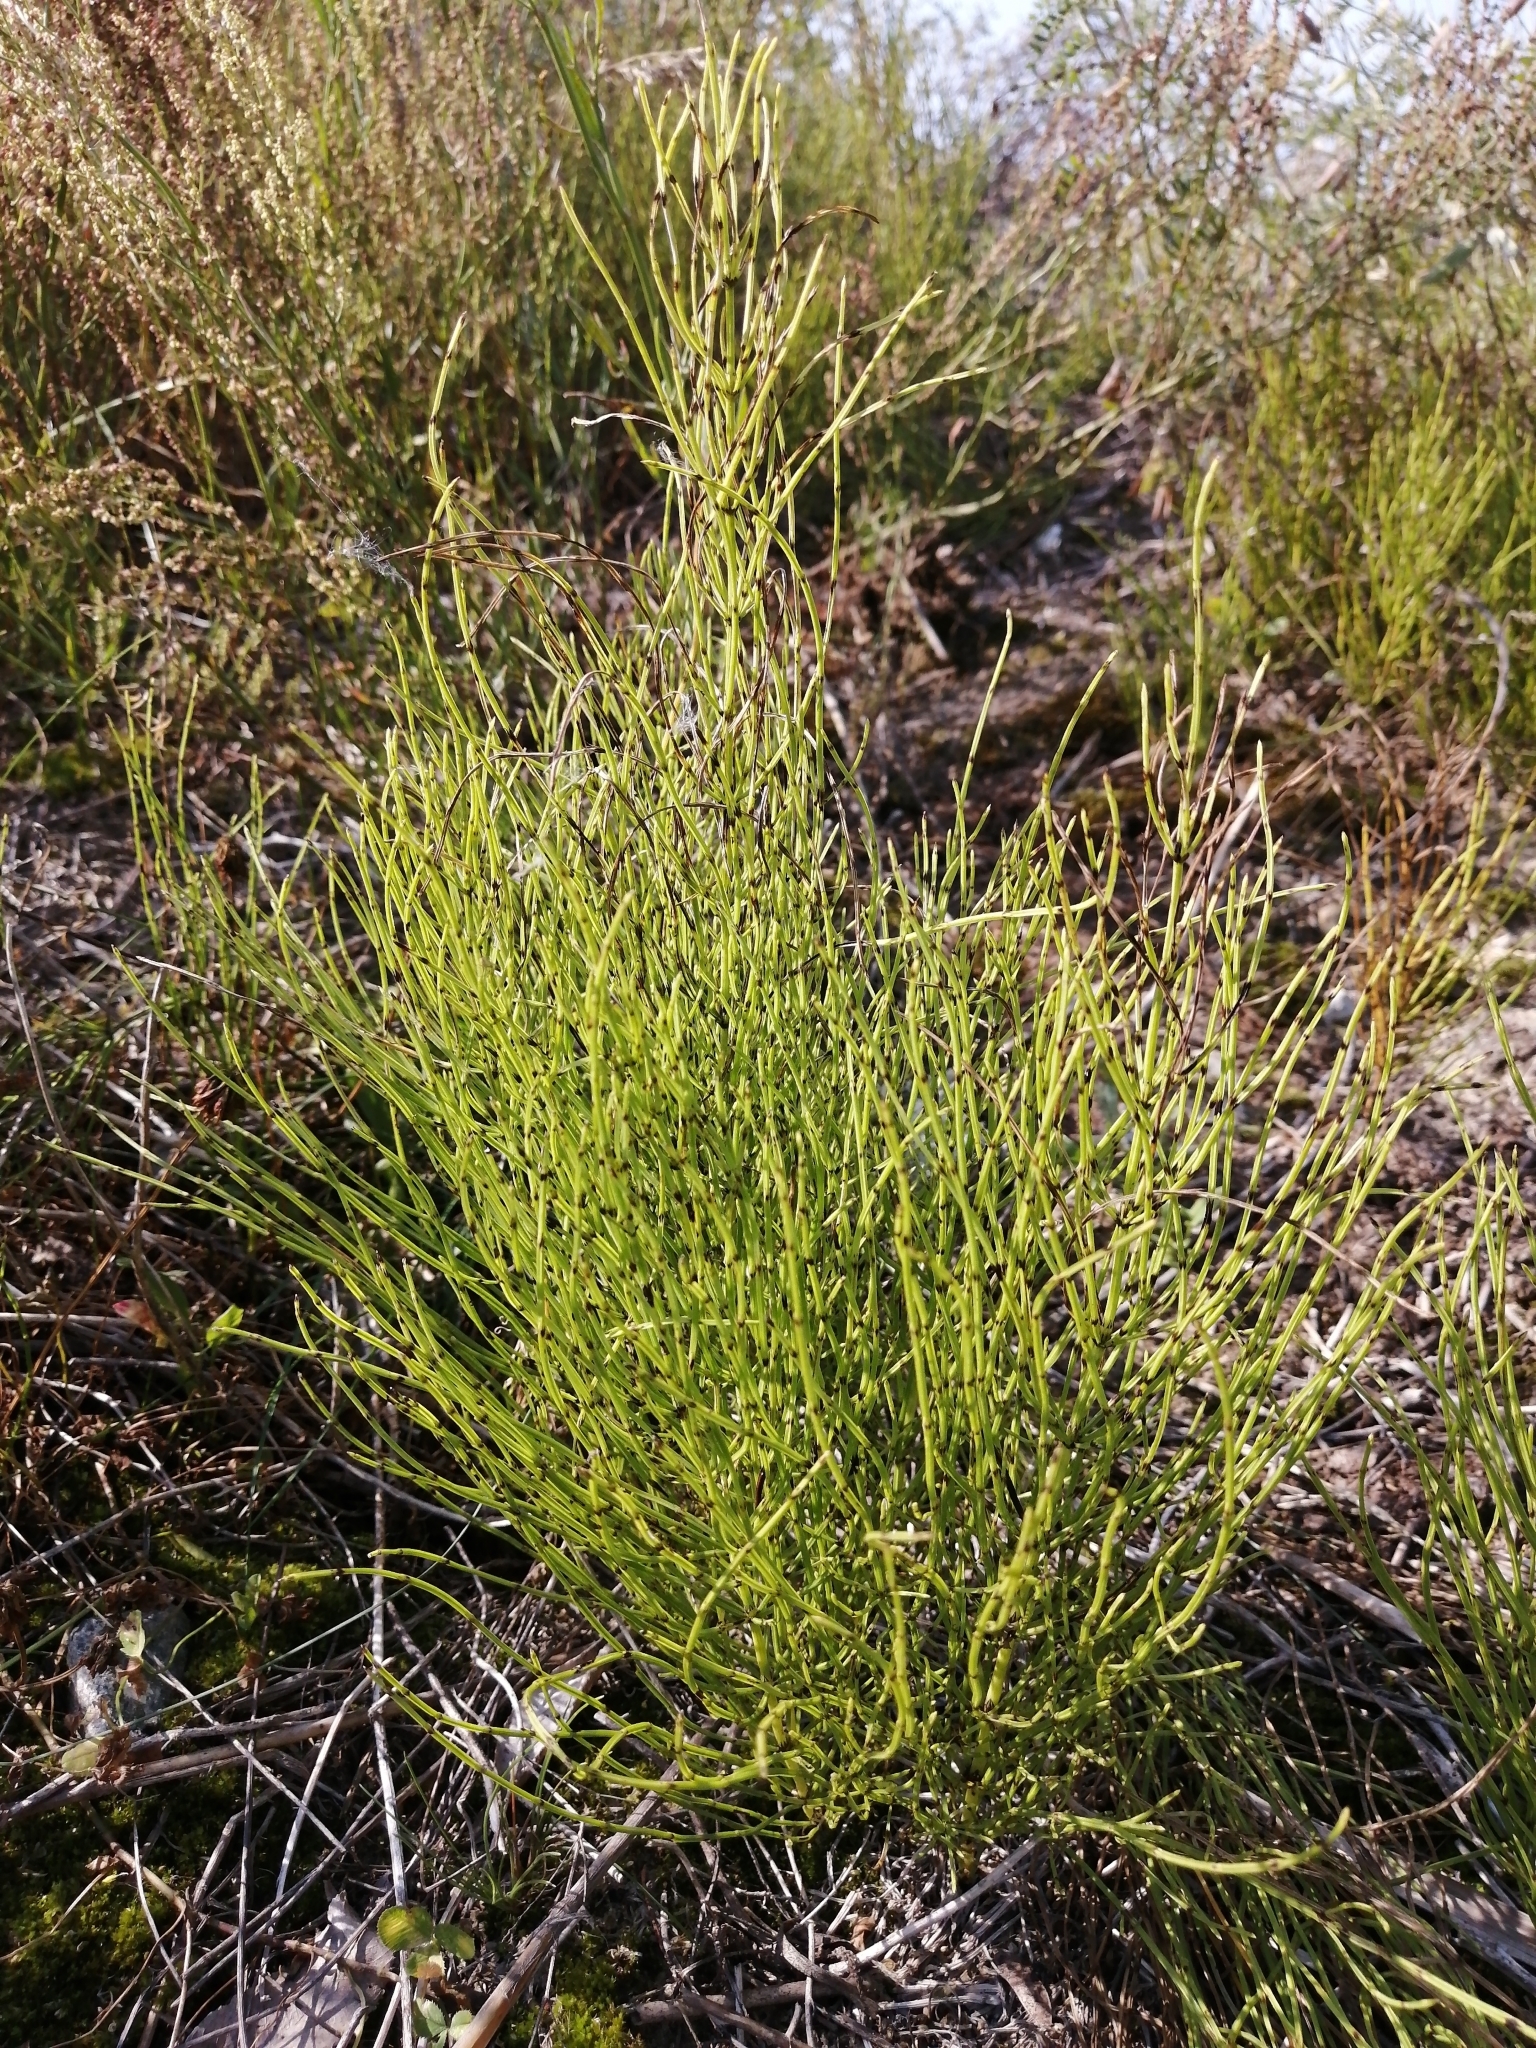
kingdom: Plantae
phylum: Tracheophyta
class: Polypodiopsida
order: Equisetales
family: Equisetaceae
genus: Equisetum
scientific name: Equisetum arvense
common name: Field horsetail
